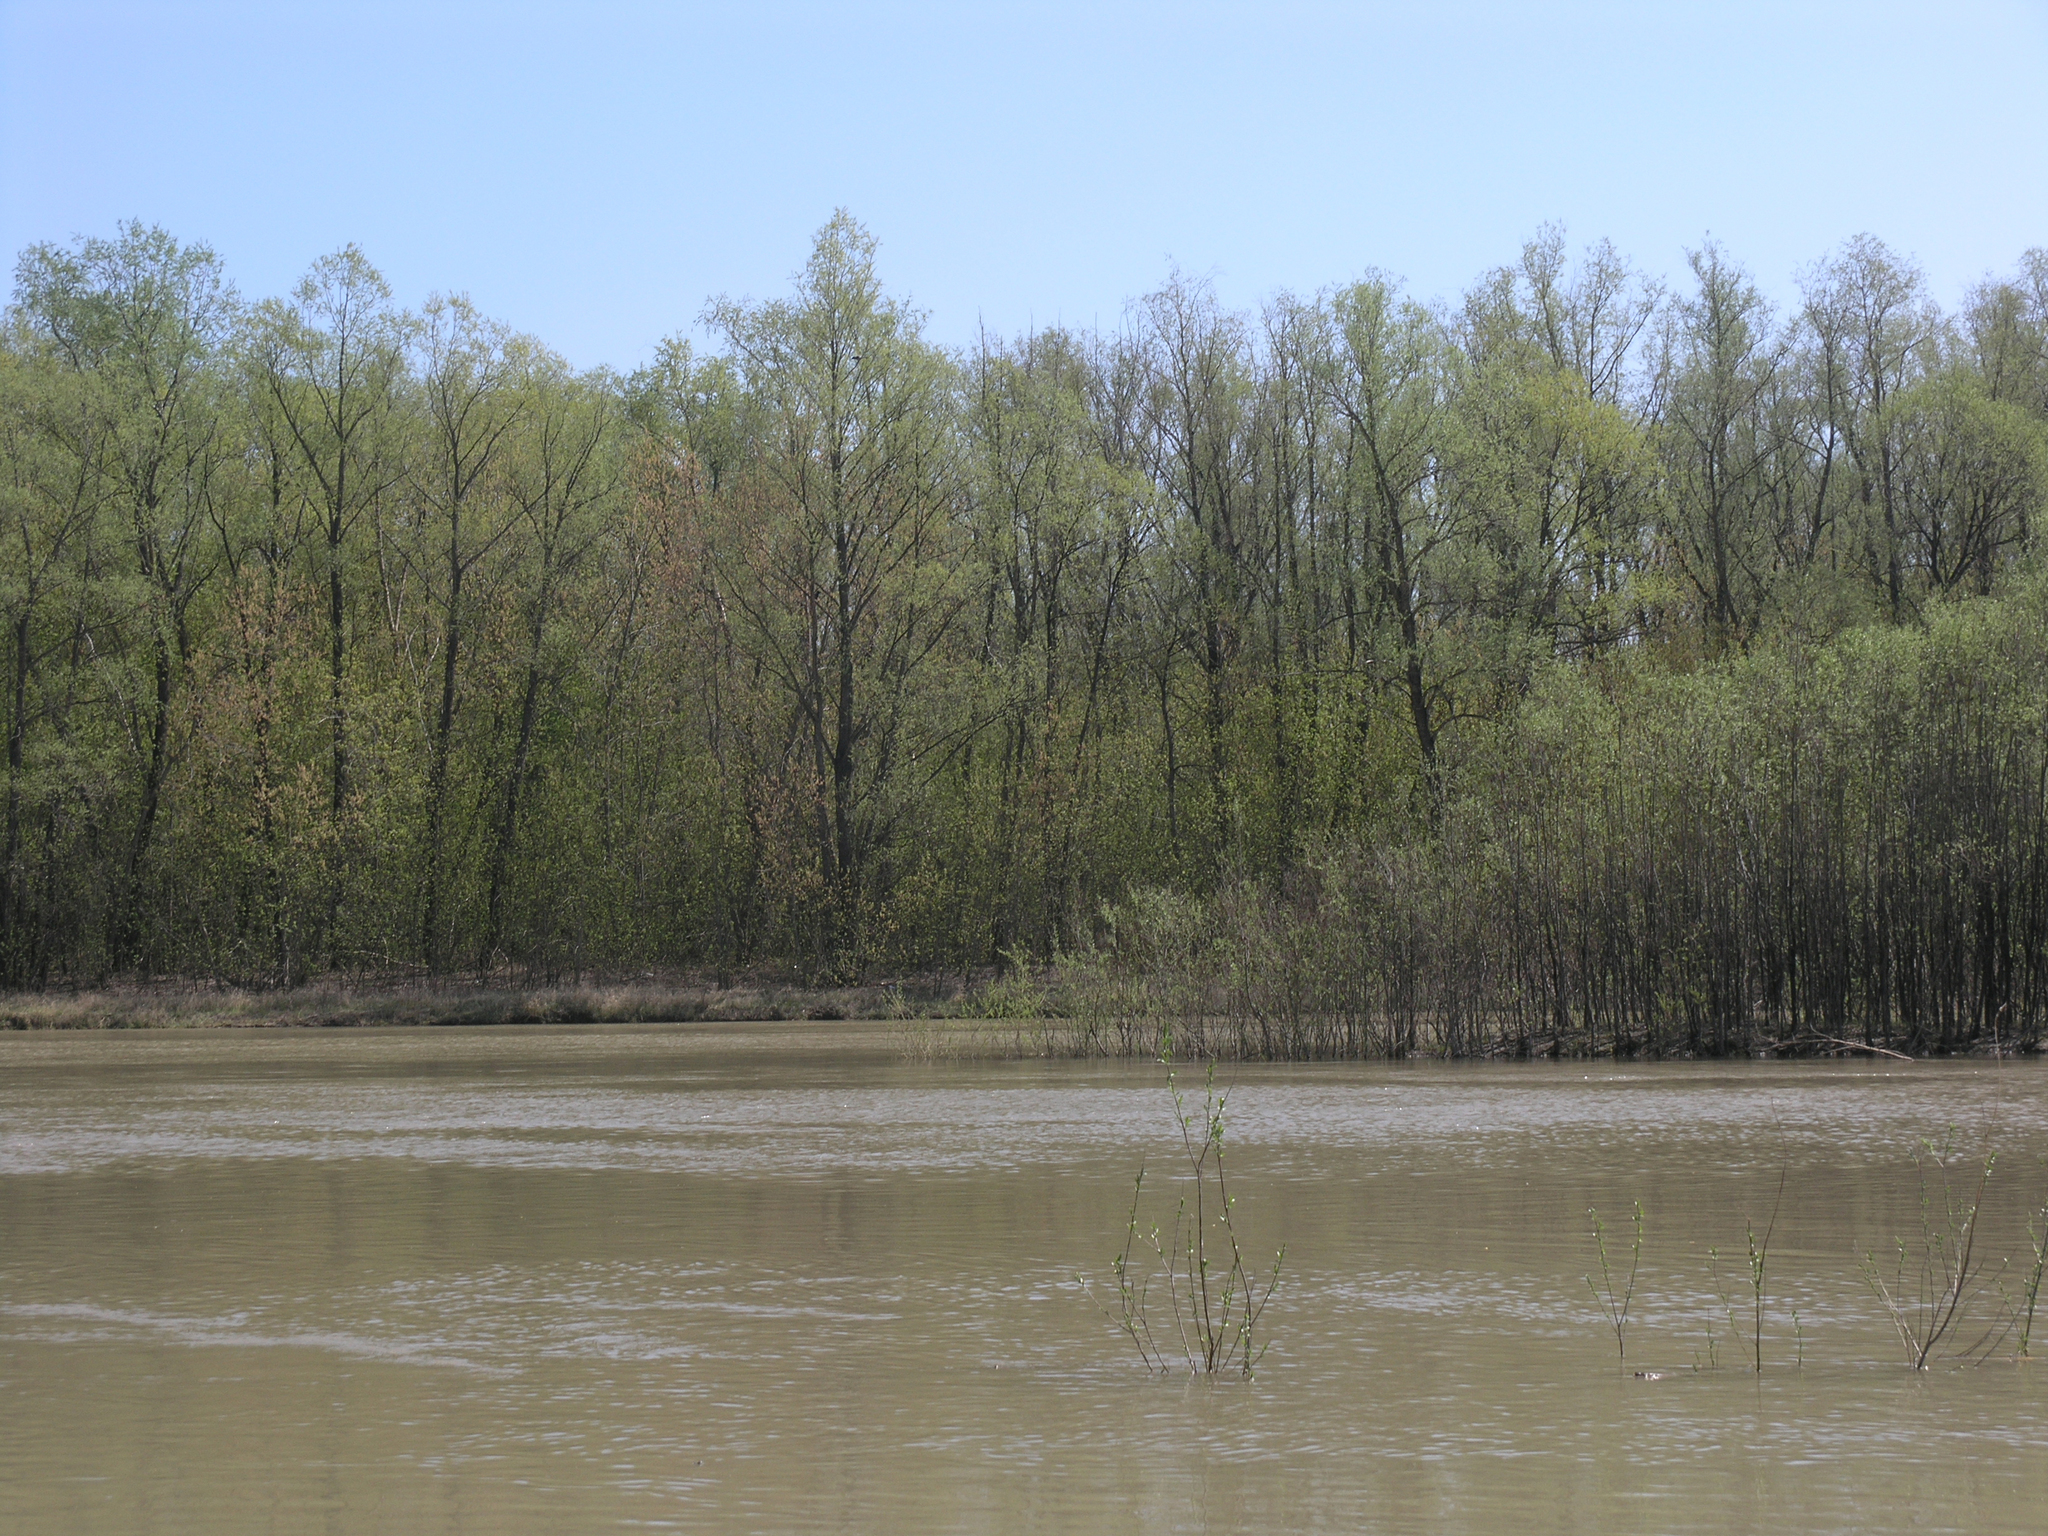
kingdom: Plantae
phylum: Tracheophyta
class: Magnoliopsida
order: Malpighiales
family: Salicaceae
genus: Salix
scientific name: Salix alba
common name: White willow
